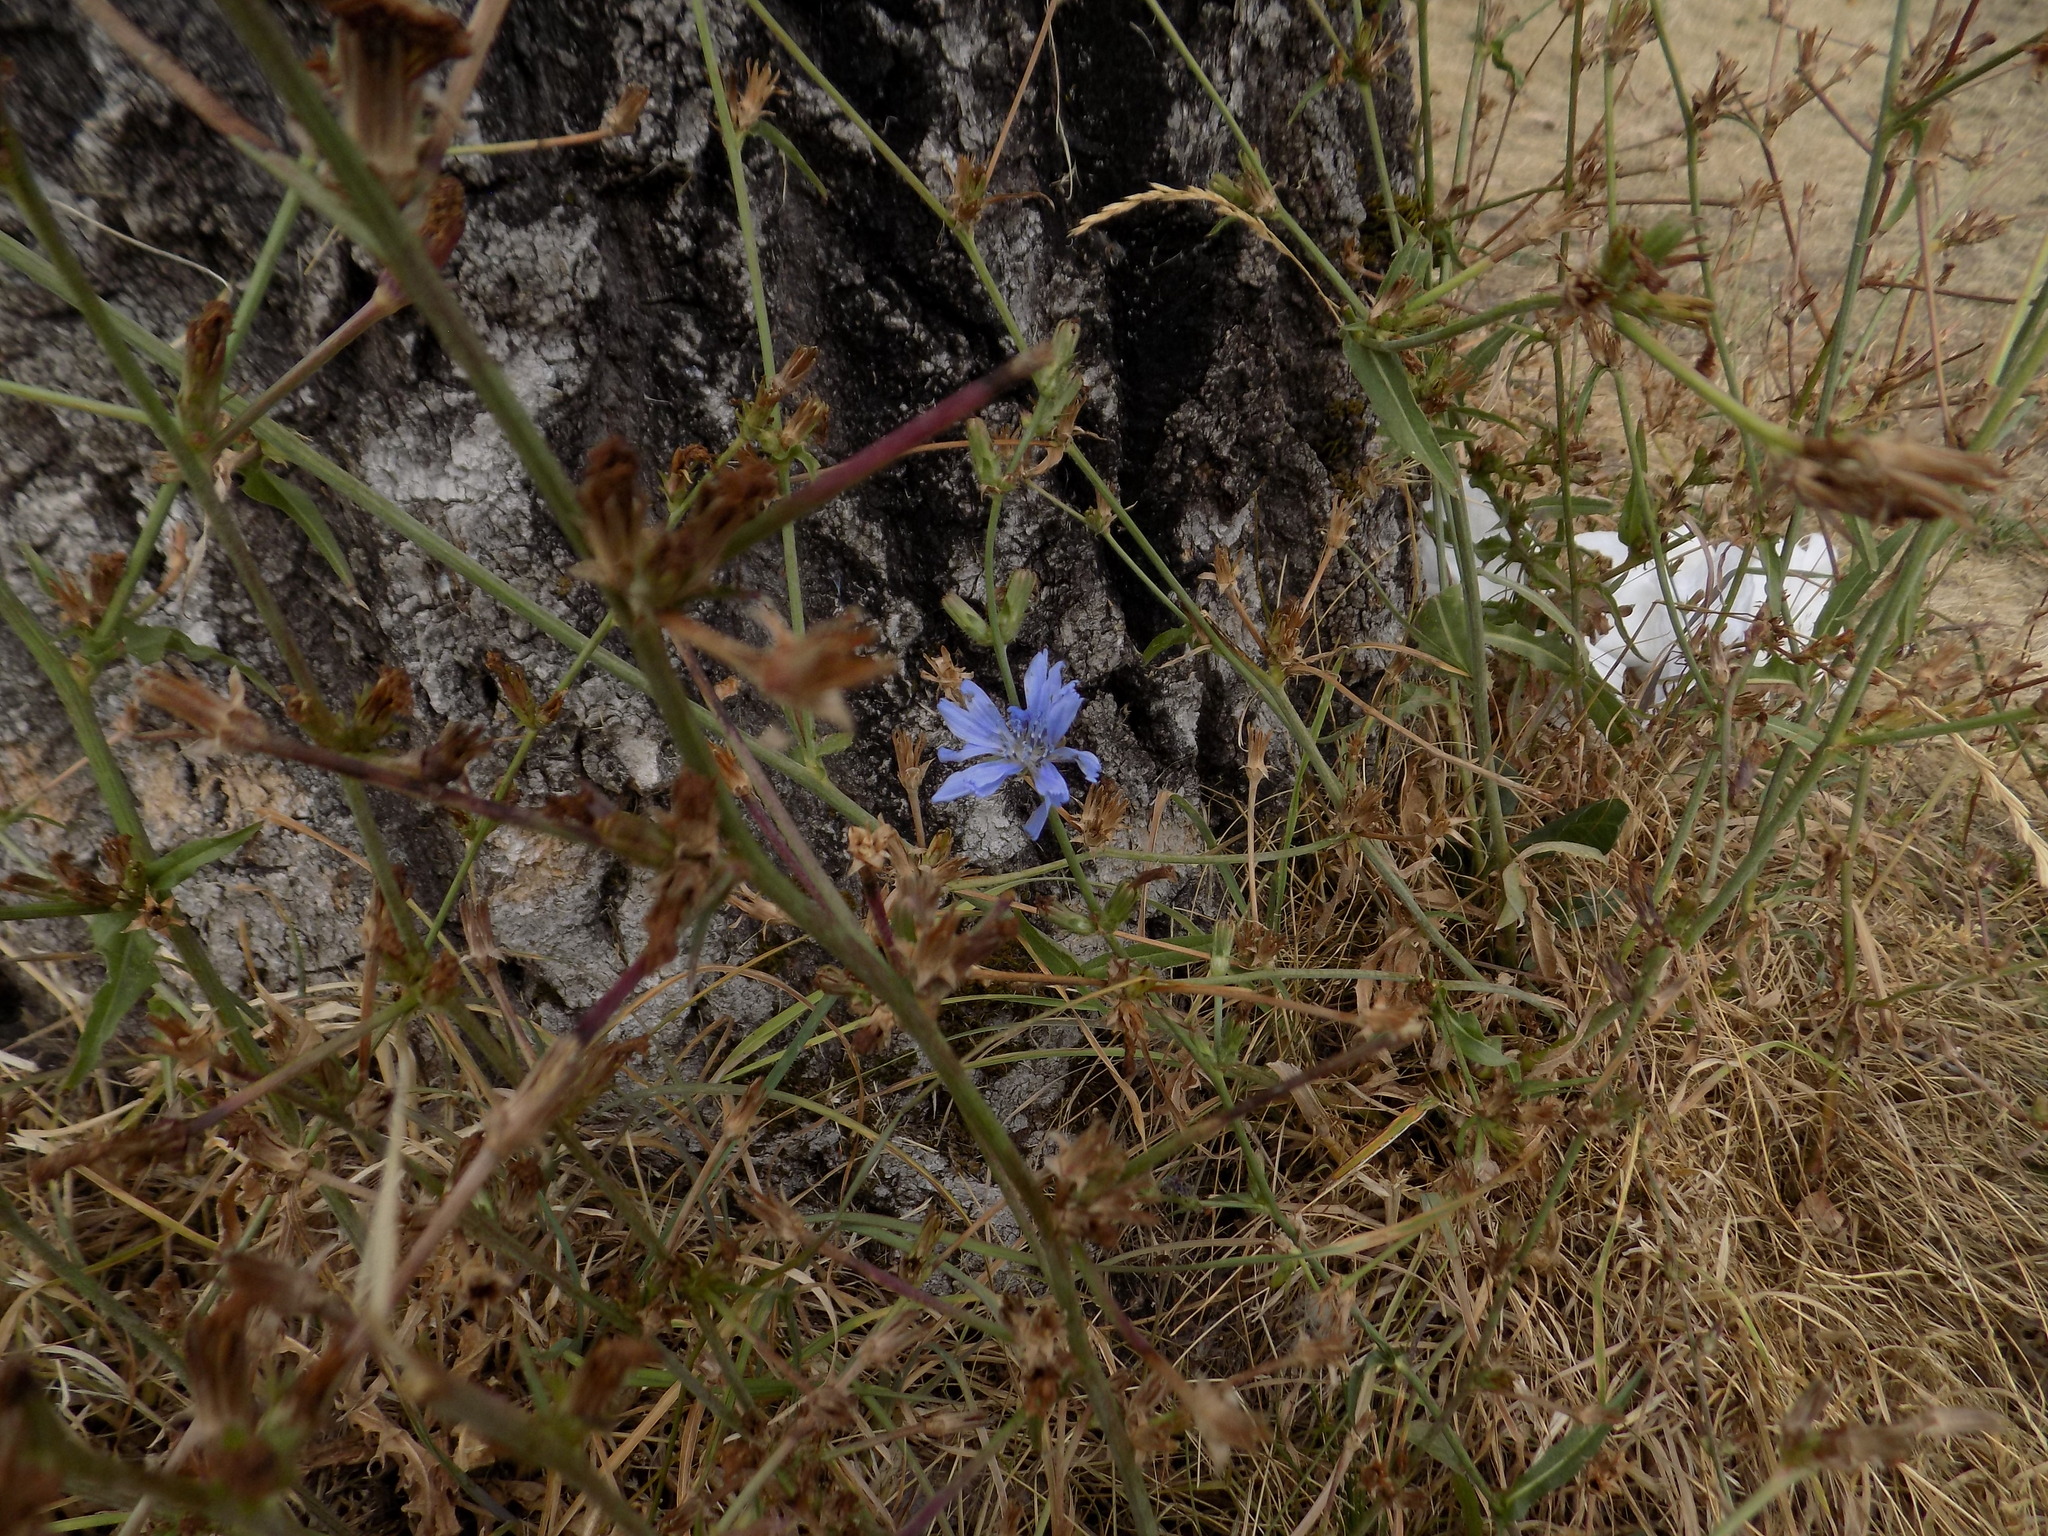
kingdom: Plantae
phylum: Tracheophyta
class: Magnoliopsida
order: Asterales
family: Asteraceae
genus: Cichorium
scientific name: Cichorium intybus
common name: Chicory
